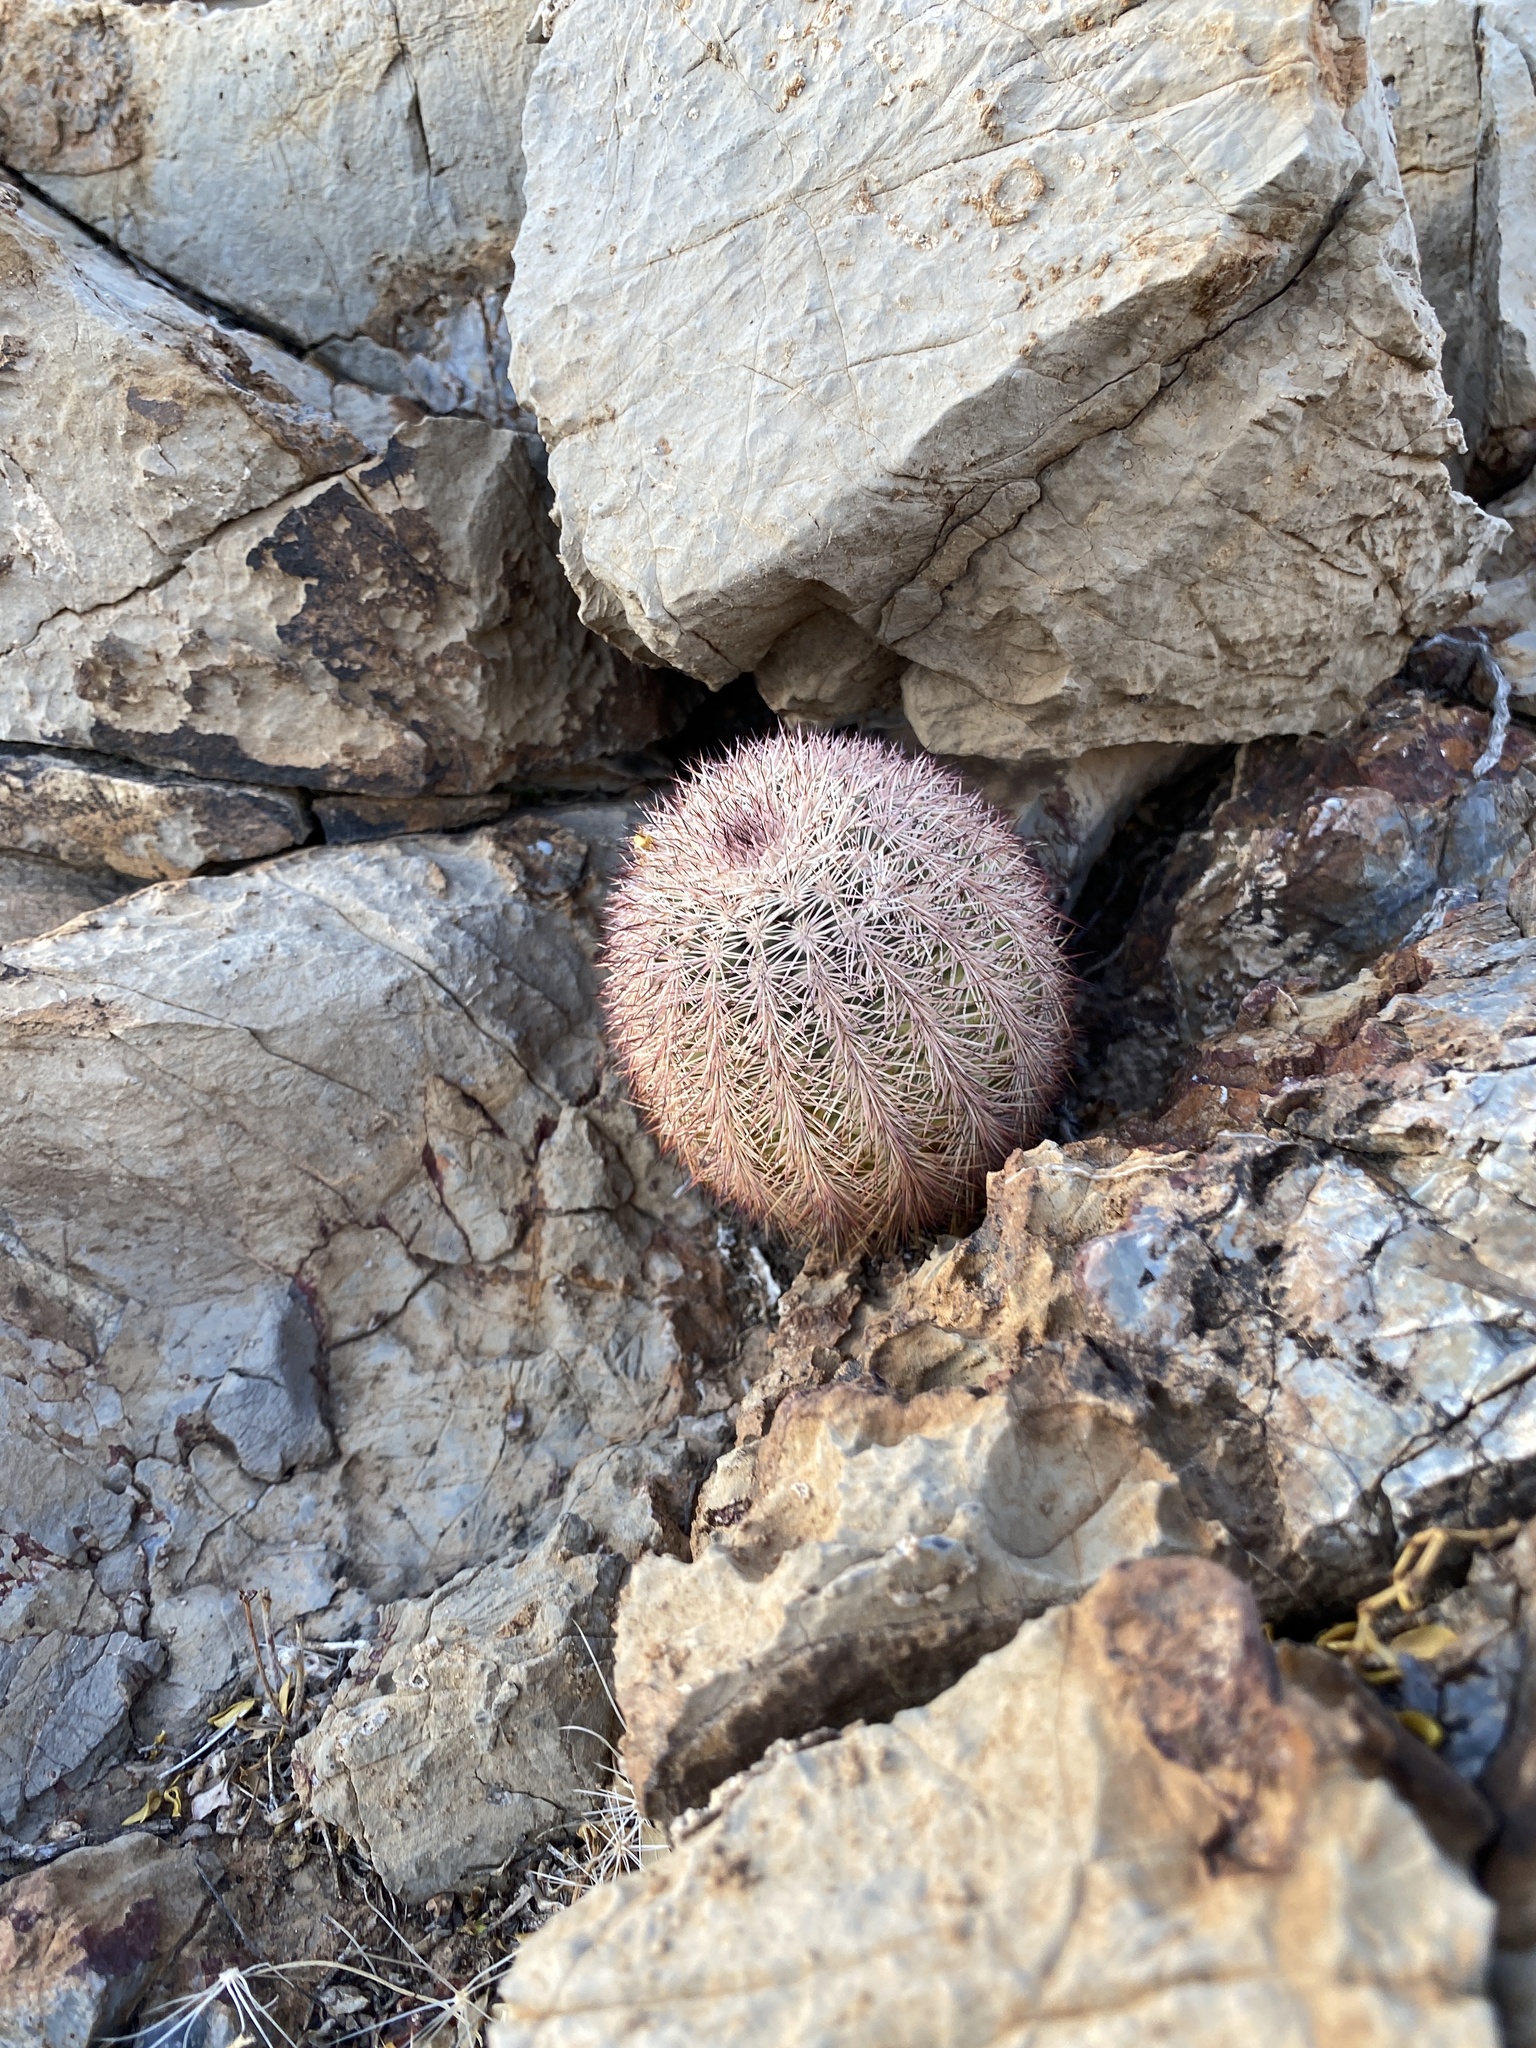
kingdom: Plantae
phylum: Tracheophyta
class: Magnoliopsida
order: Caryophyllales
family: Cactaceae
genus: Echinocereus
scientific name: Echinocereus dasyacanthus
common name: Spiny hedgehog cactus
